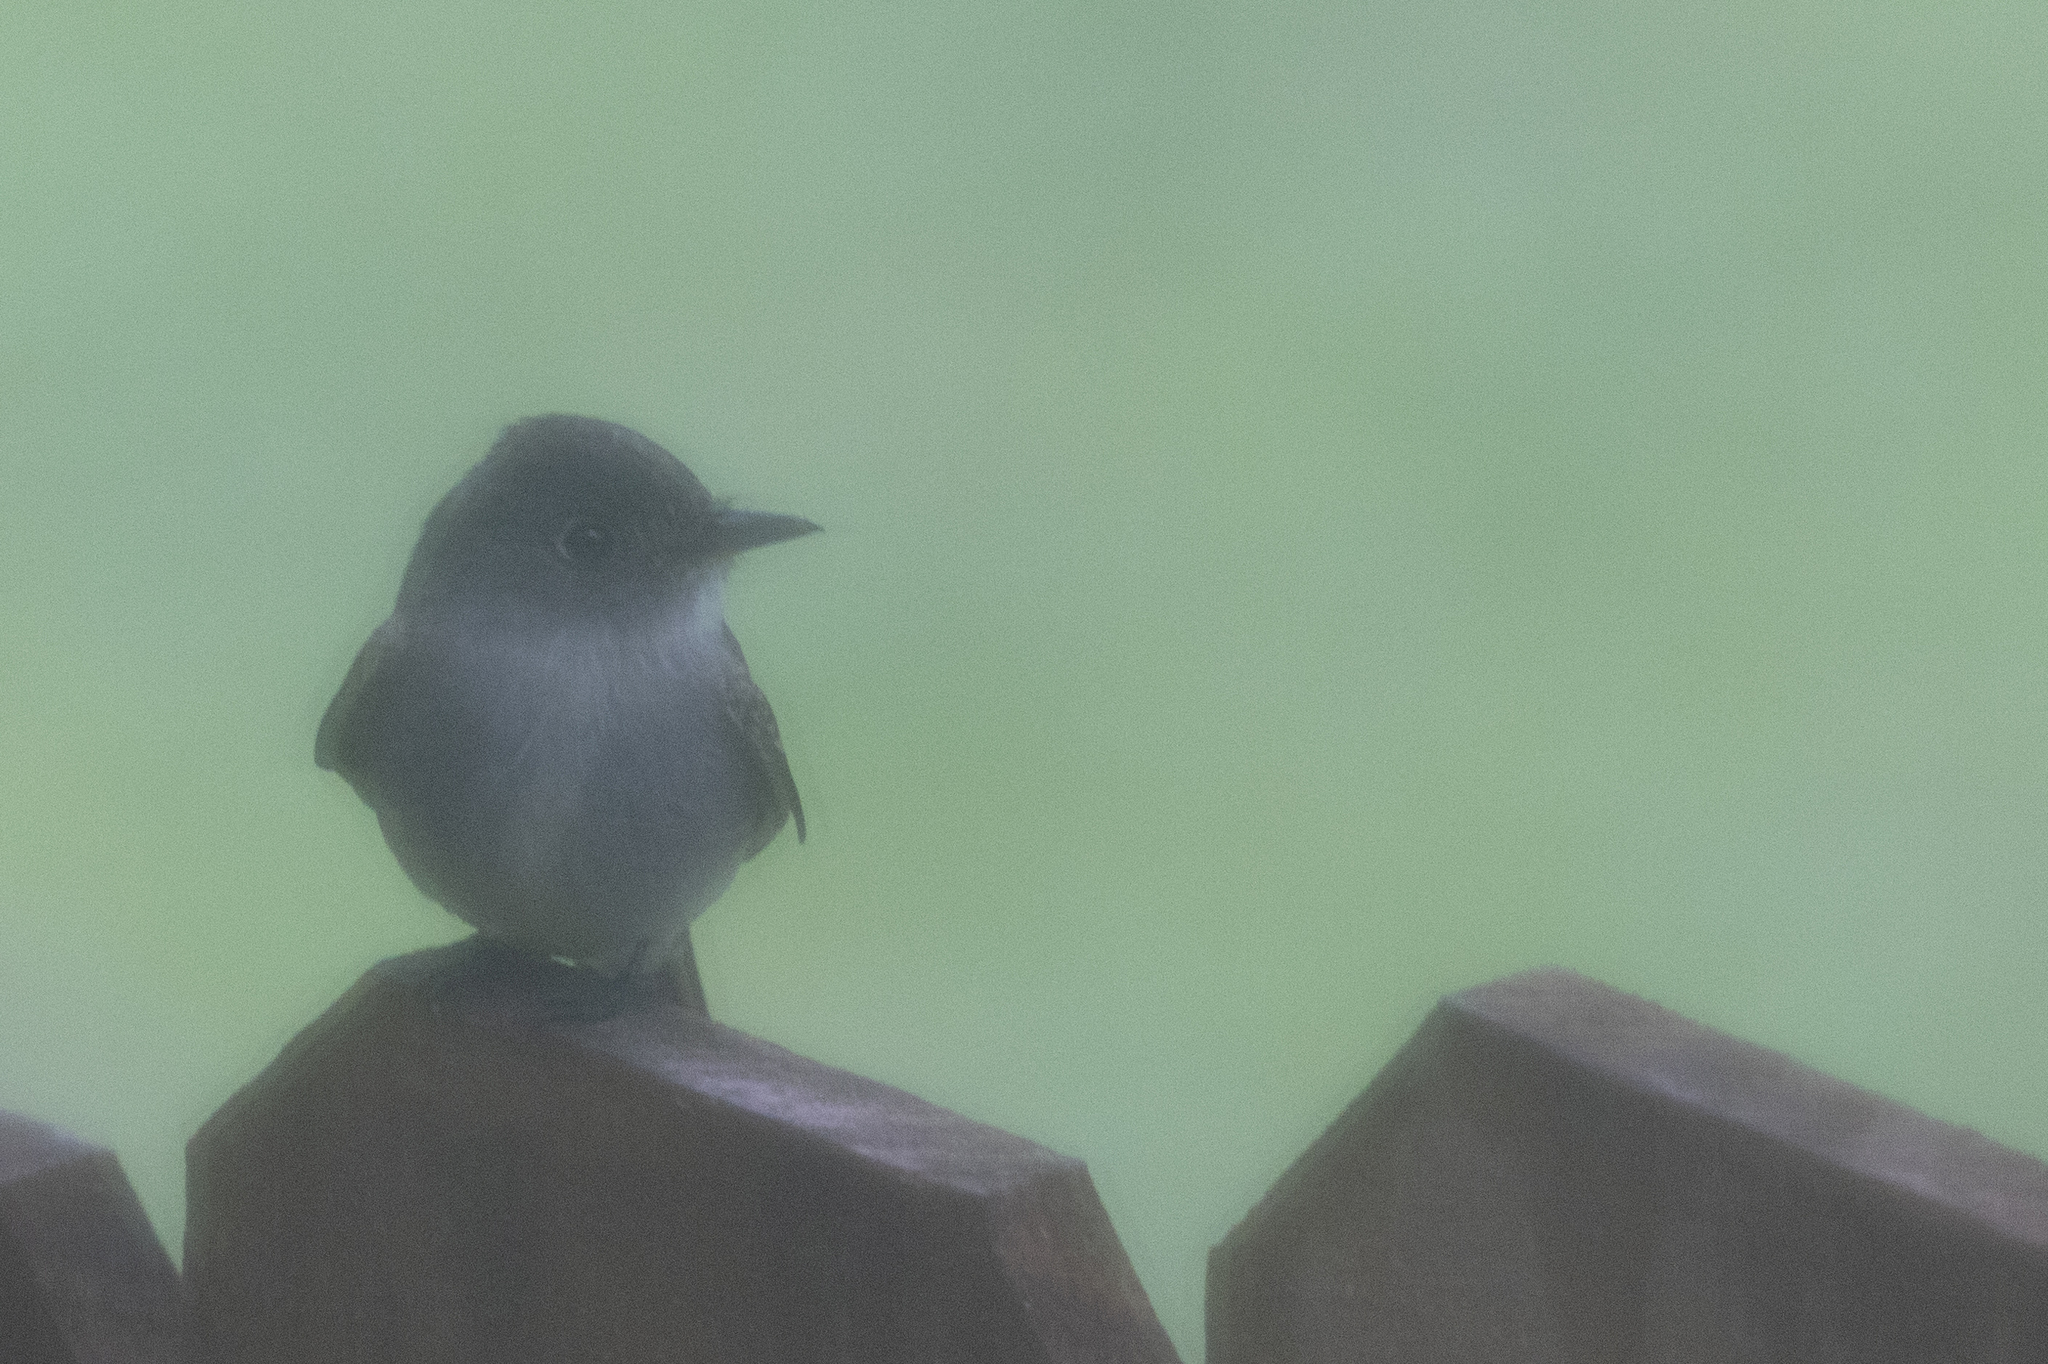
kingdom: Animalia
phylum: Chordata
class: Aves
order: Passeriformes
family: Tyrannidae
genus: Contopus
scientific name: Contopus virens
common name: Eastern wood-pewee
